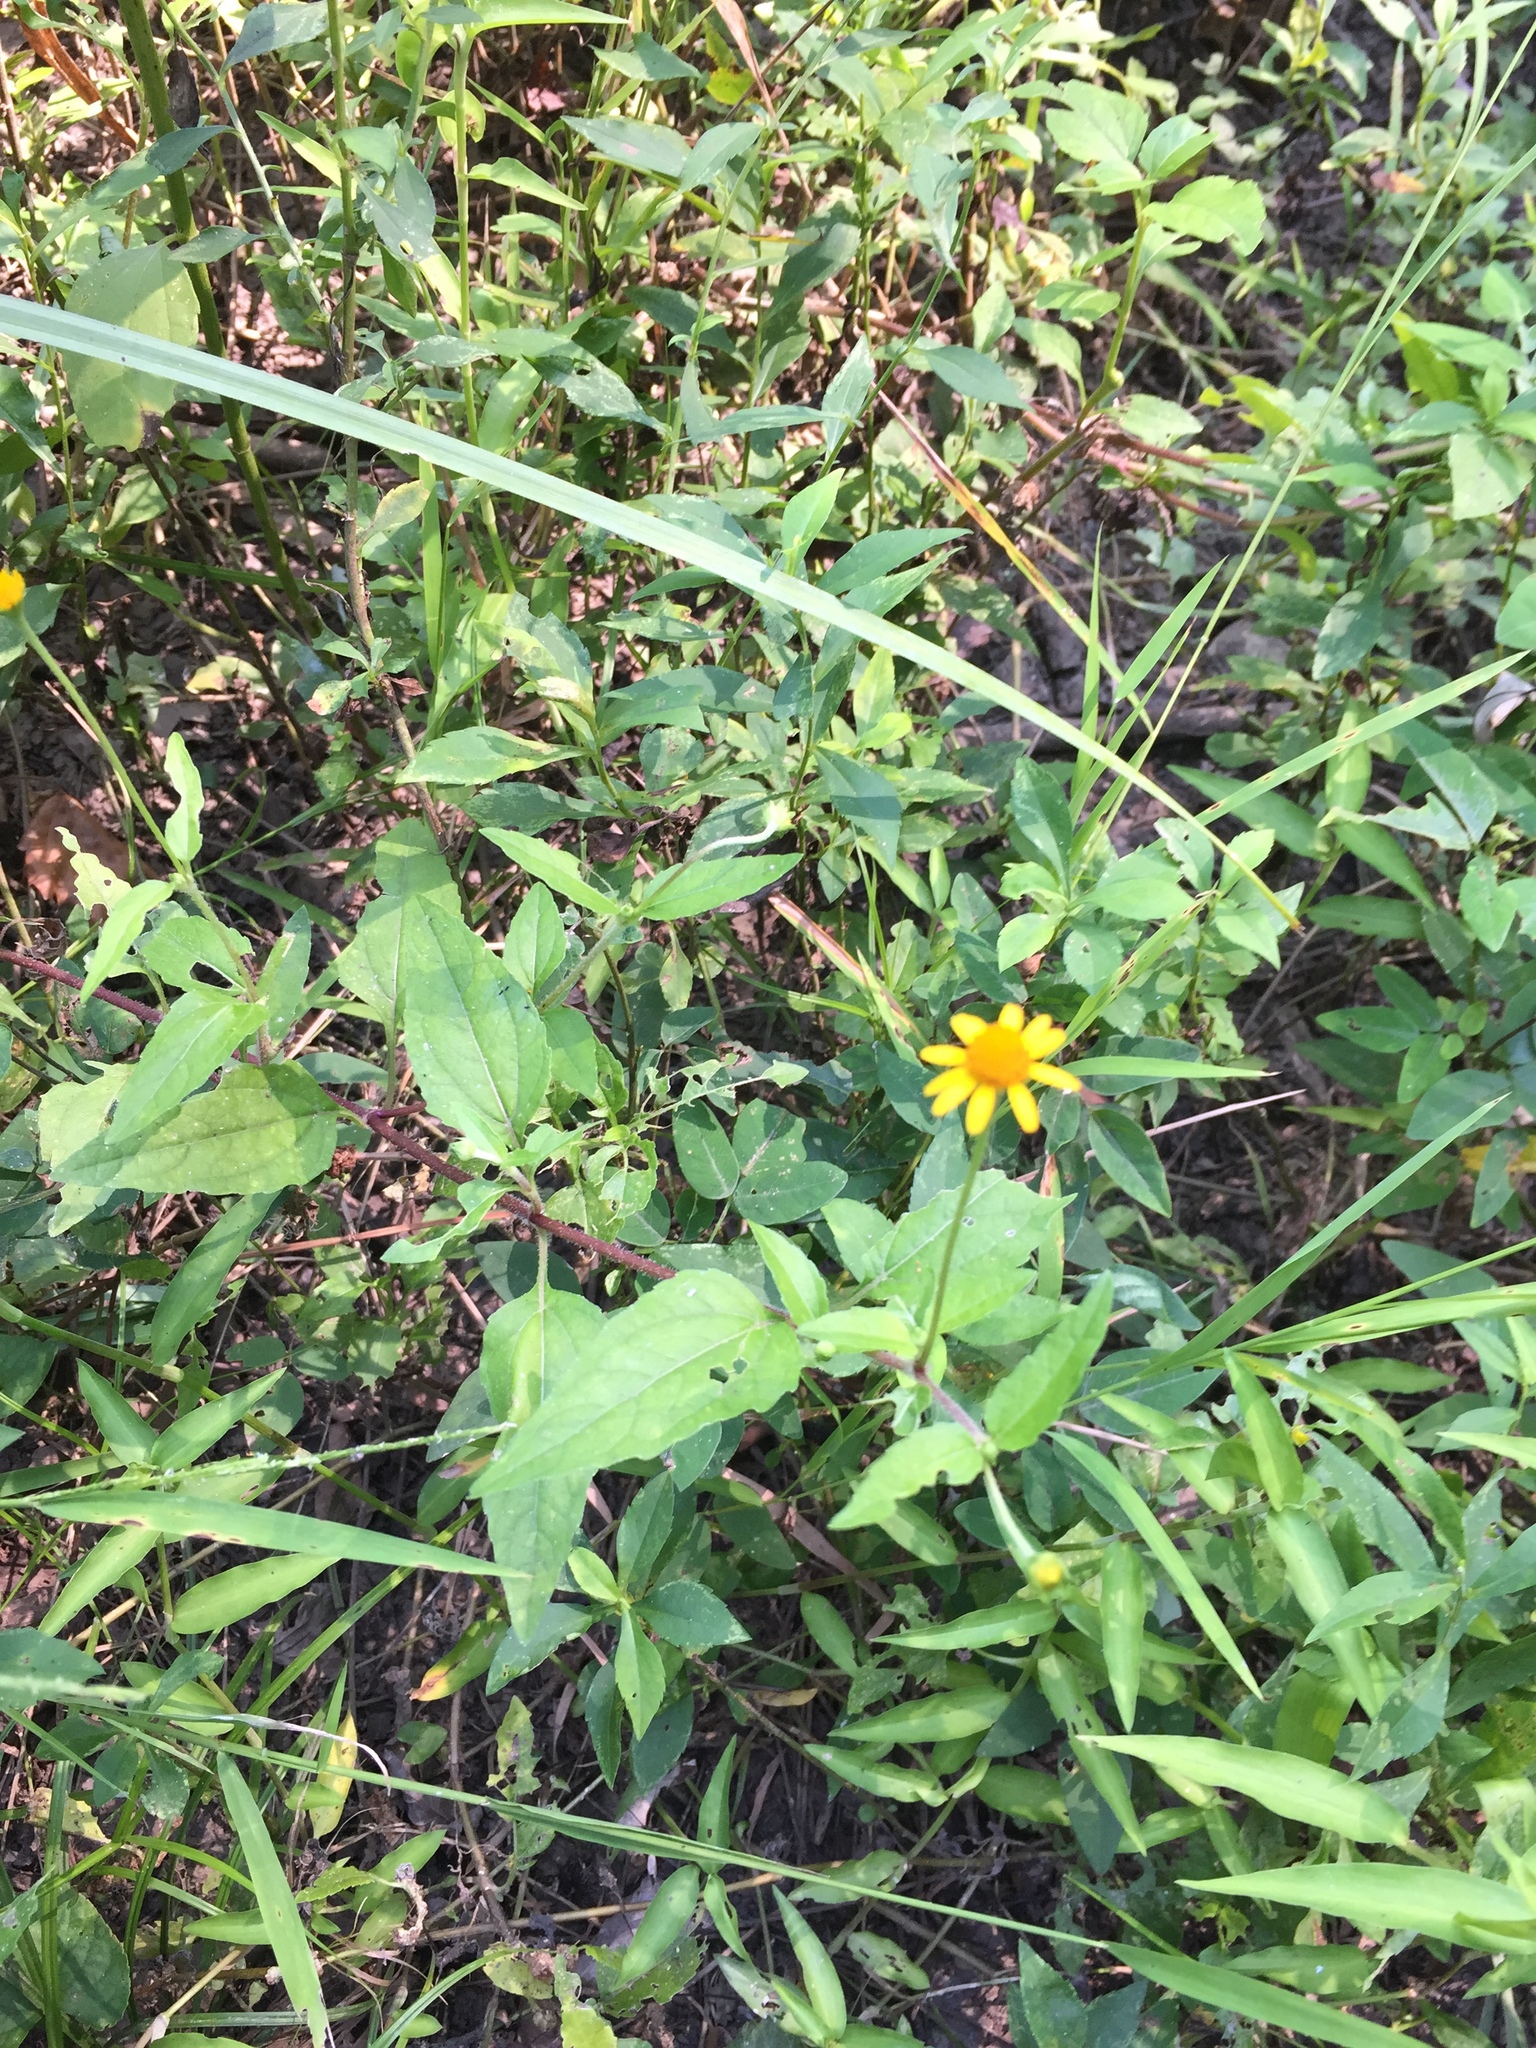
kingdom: Plantae
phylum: Tracheophyta
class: Magnoliopsida
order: Asterales
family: Asteraceae
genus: Acmella
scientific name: Acmella repens
